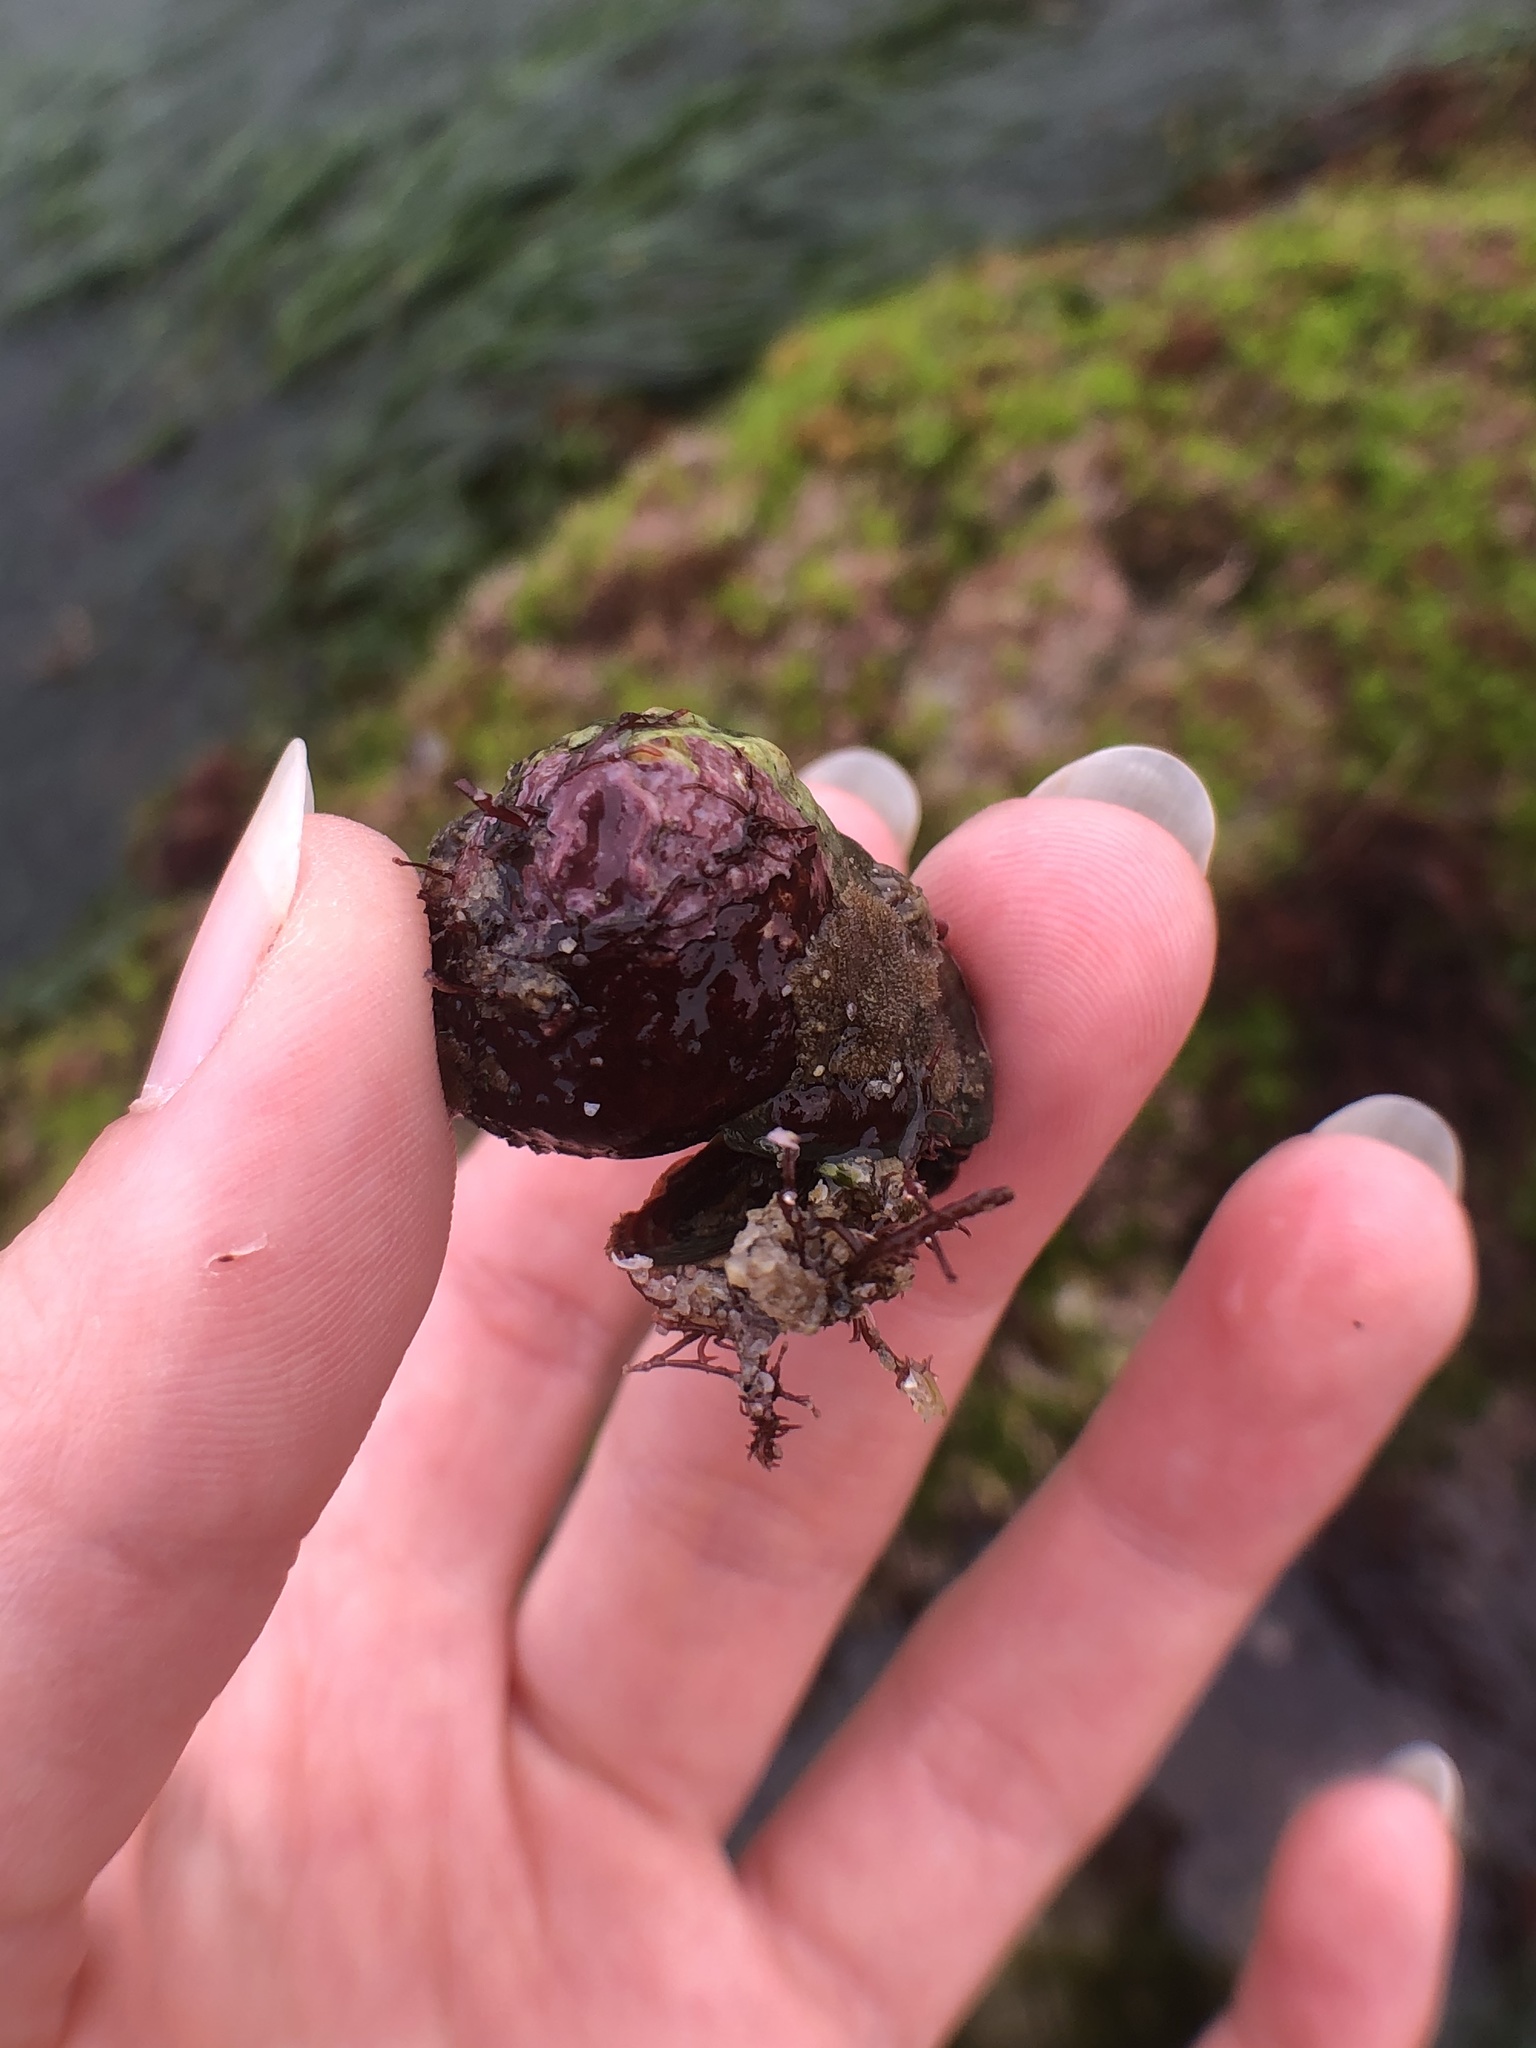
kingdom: Animalia
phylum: Mollusca
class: Gastropoda
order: Trochida
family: Tegulidae
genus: Tegula
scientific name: Tegula aureotincta
